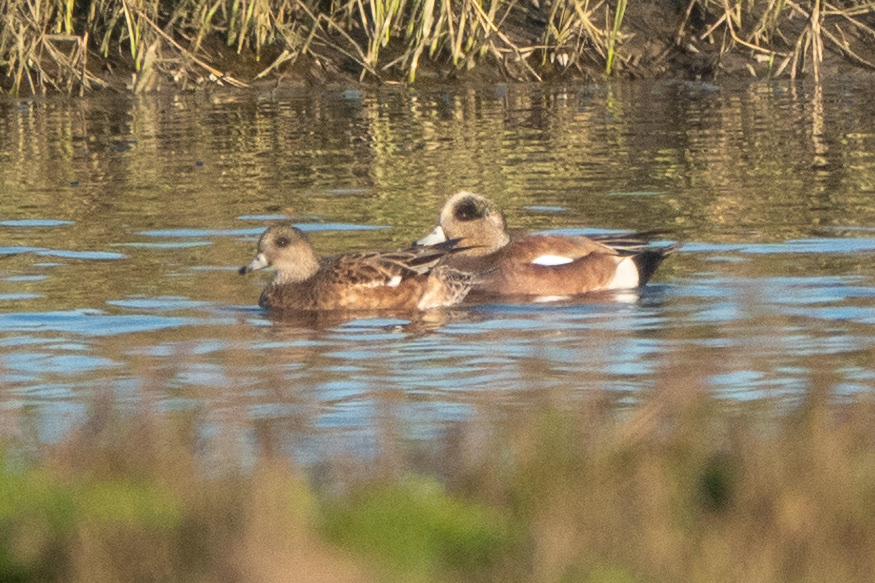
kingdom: Animalia
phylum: Chordata
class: Aves
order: Anseriformes
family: Anatidae
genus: Mareca
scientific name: Mareca americana
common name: American wigeon
